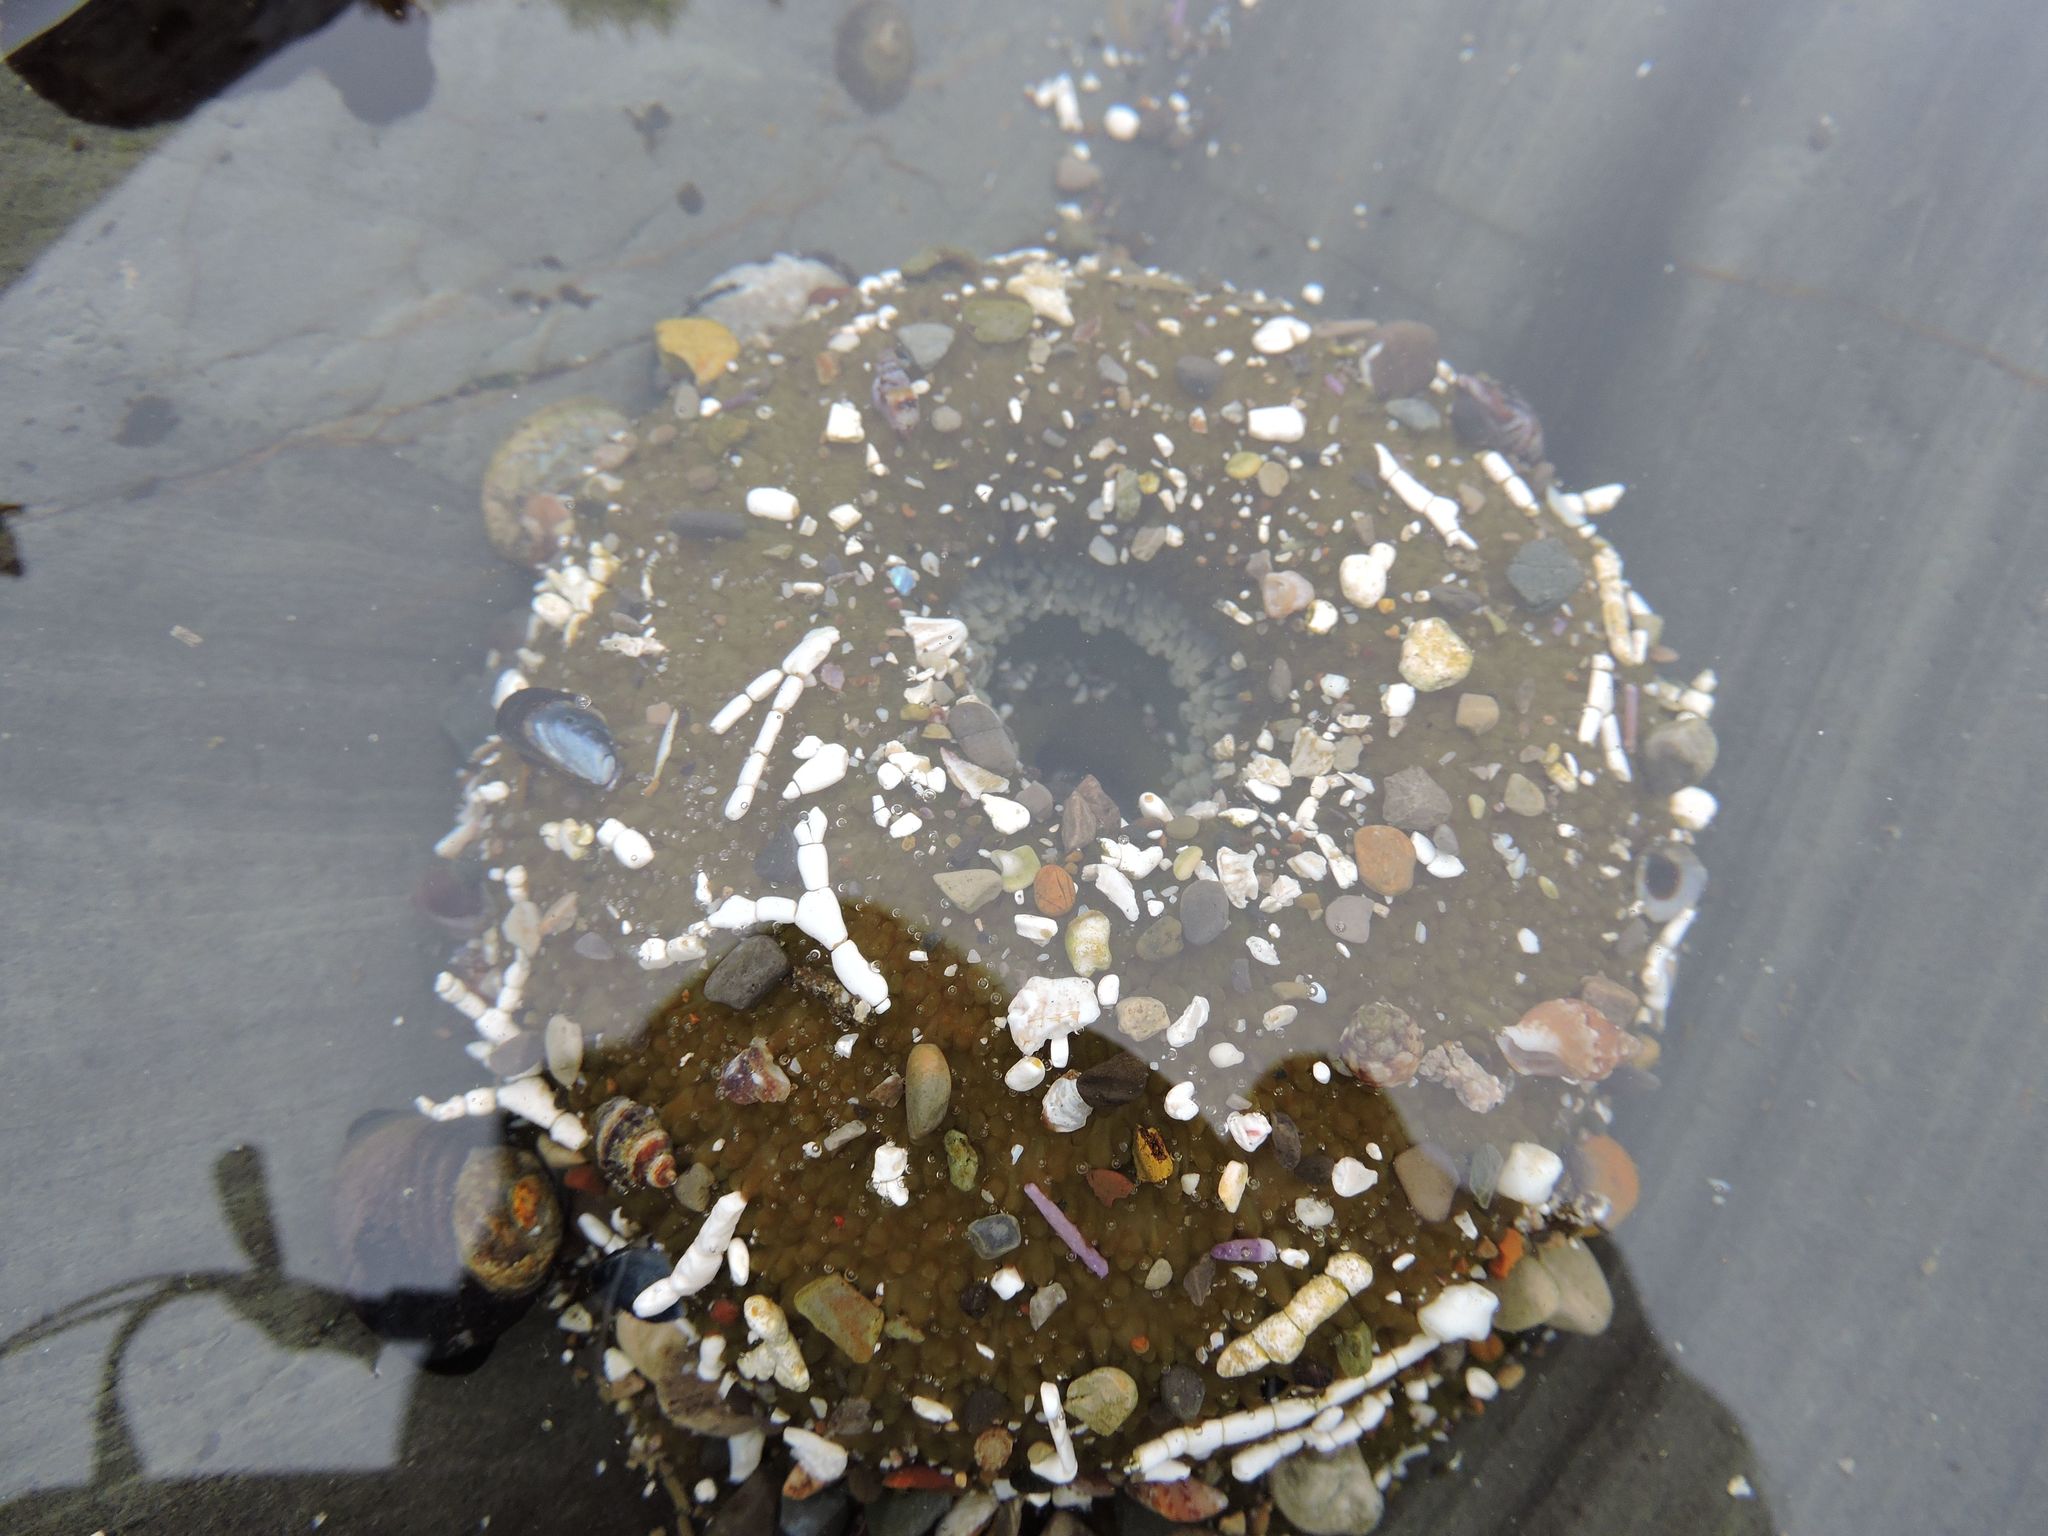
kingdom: Animalia
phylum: Cnidaria
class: Anthozoa
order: Actiniaria
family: Actiniidae
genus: Anthopleura
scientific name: Anthopleura sola
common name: Sun anemone
